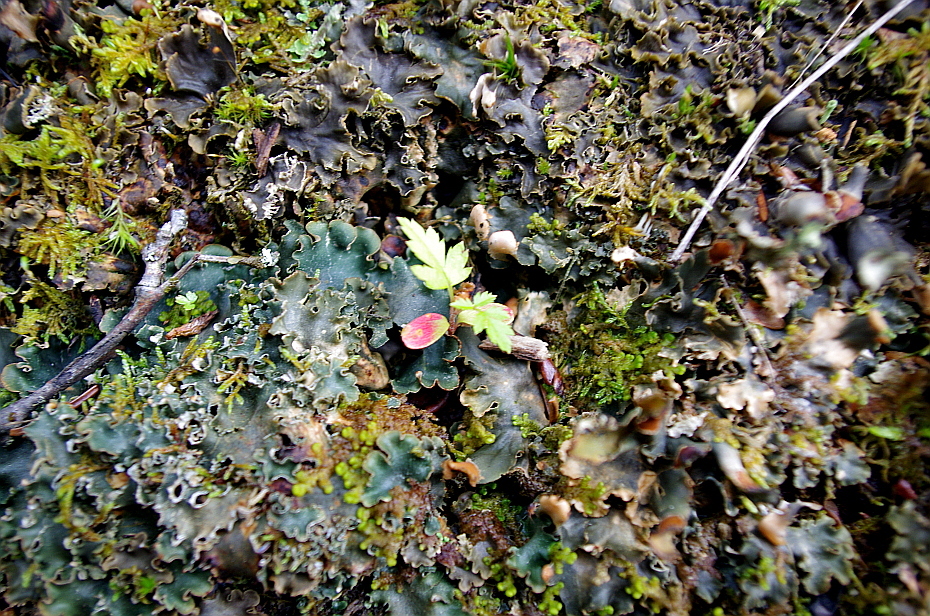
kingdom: Plantae
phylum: Tracheophyta
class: Magnoliopsida
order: Rosales
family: Rosaceae
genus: Sorbus
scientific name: Sorbus aucuparia
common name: Rowan
